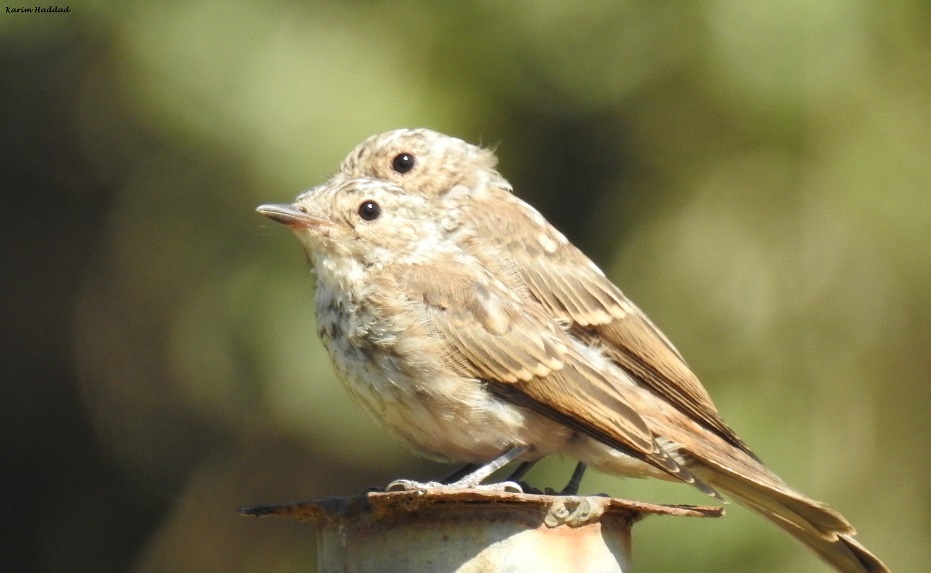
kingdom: Animalia
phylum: Chordata
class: Aves
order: Passeriformes
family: Muscicapidae
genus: Muscicapa
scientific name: Muscicapa striata
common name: Spotted flycatcher
